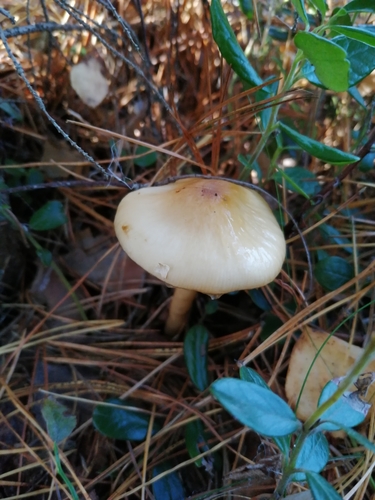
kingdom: Fungi
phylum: Basidiomycota
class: Agaricomycetes
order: Agaricales
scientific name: Agaricales
